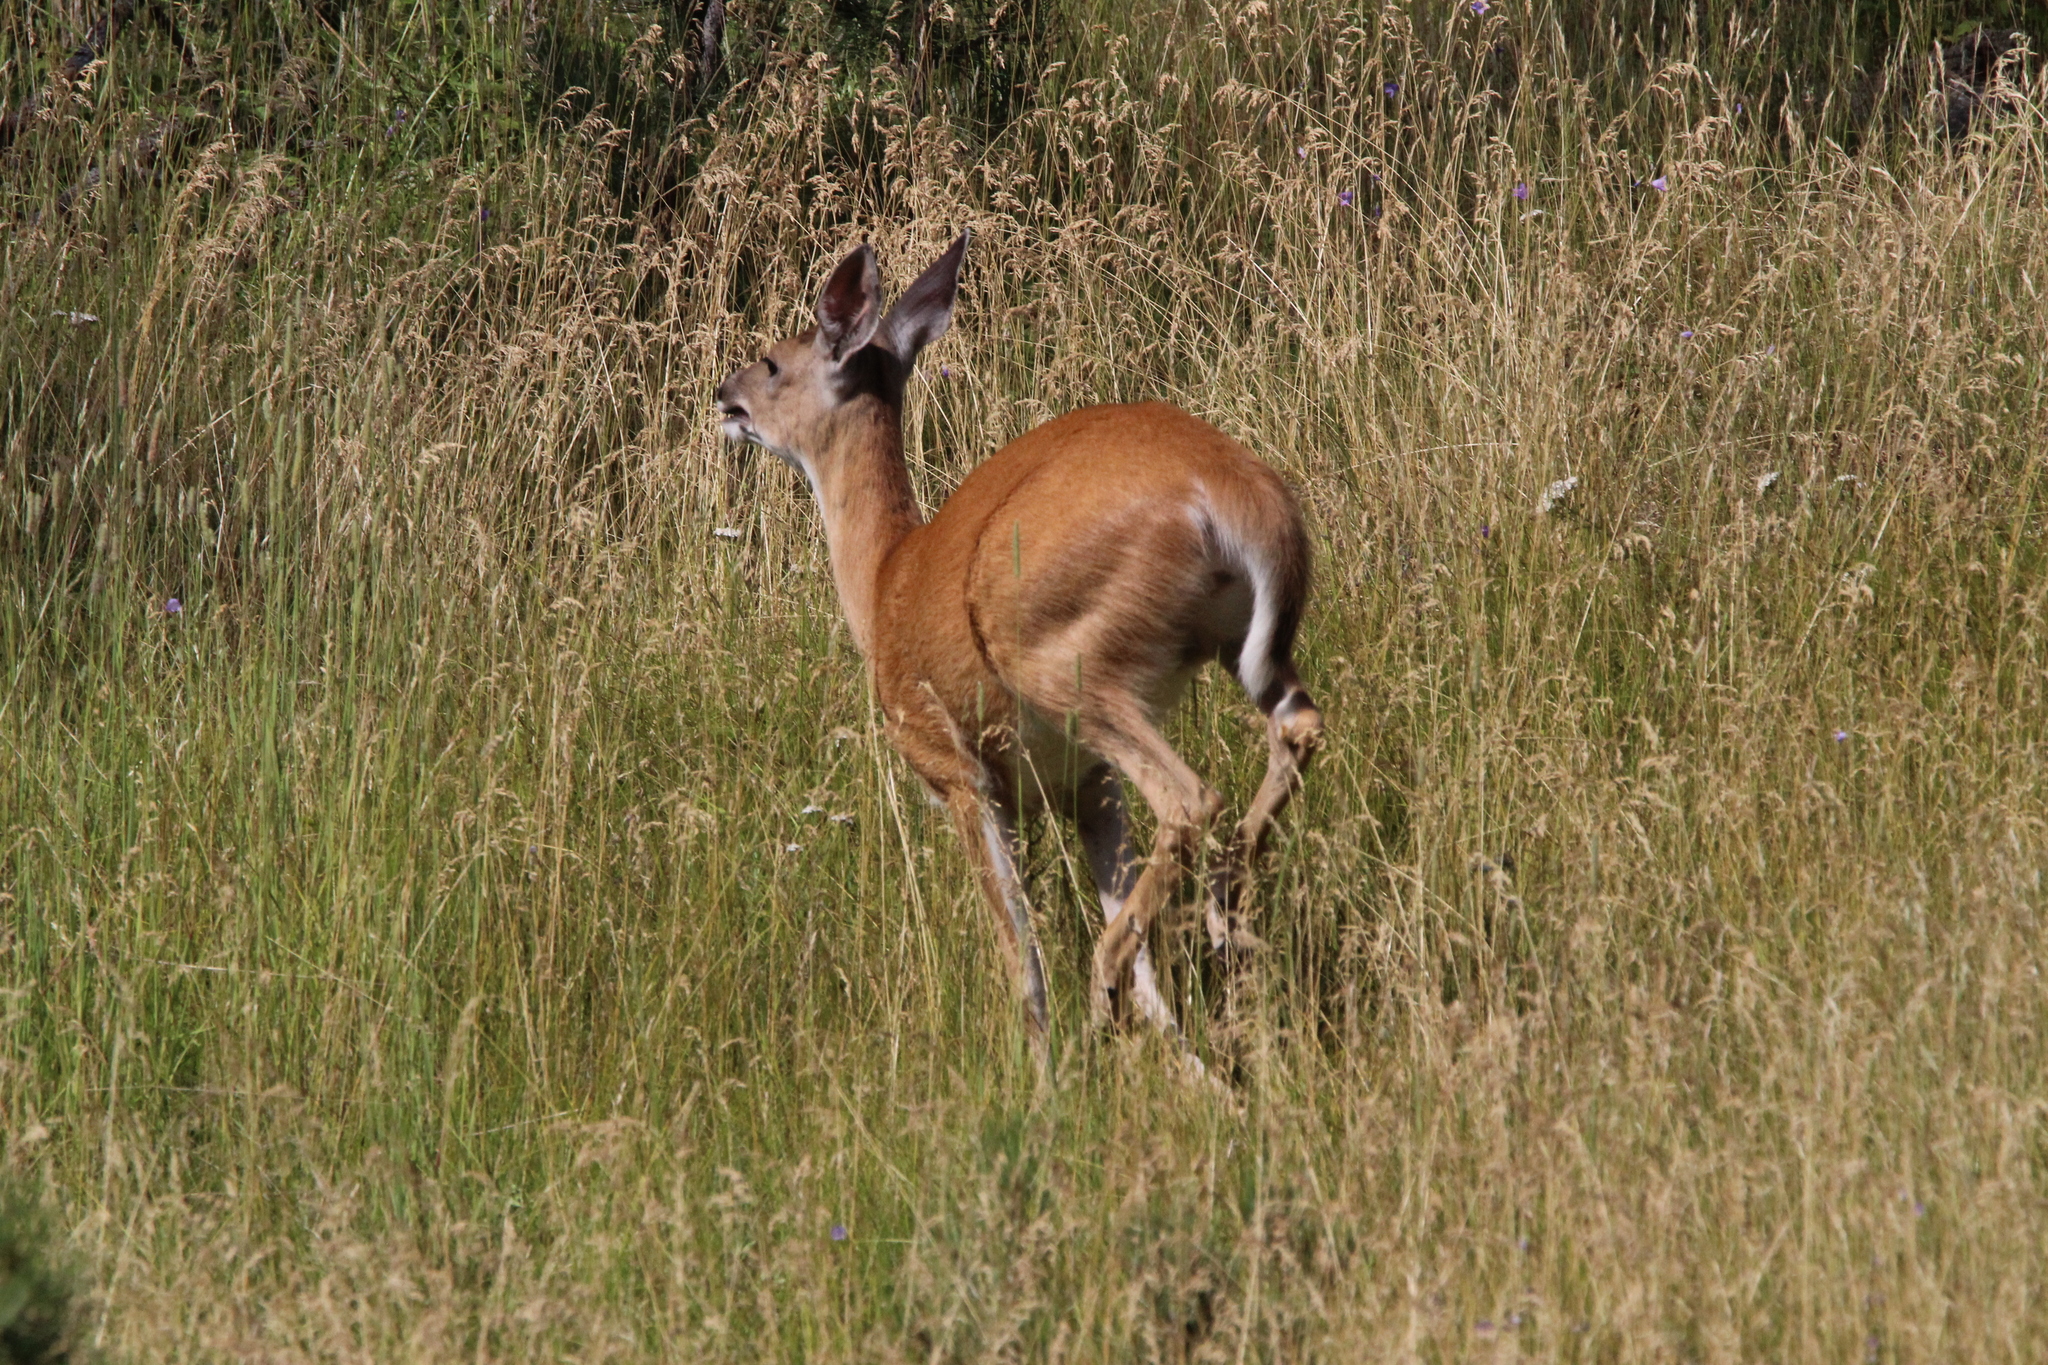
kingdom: Animalia
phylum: Chordata
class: Mammalia
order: Artiodactyla
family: Cervidae
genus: Odocoileus
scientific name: Odocoileus virginianus
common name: White-tailed deer
